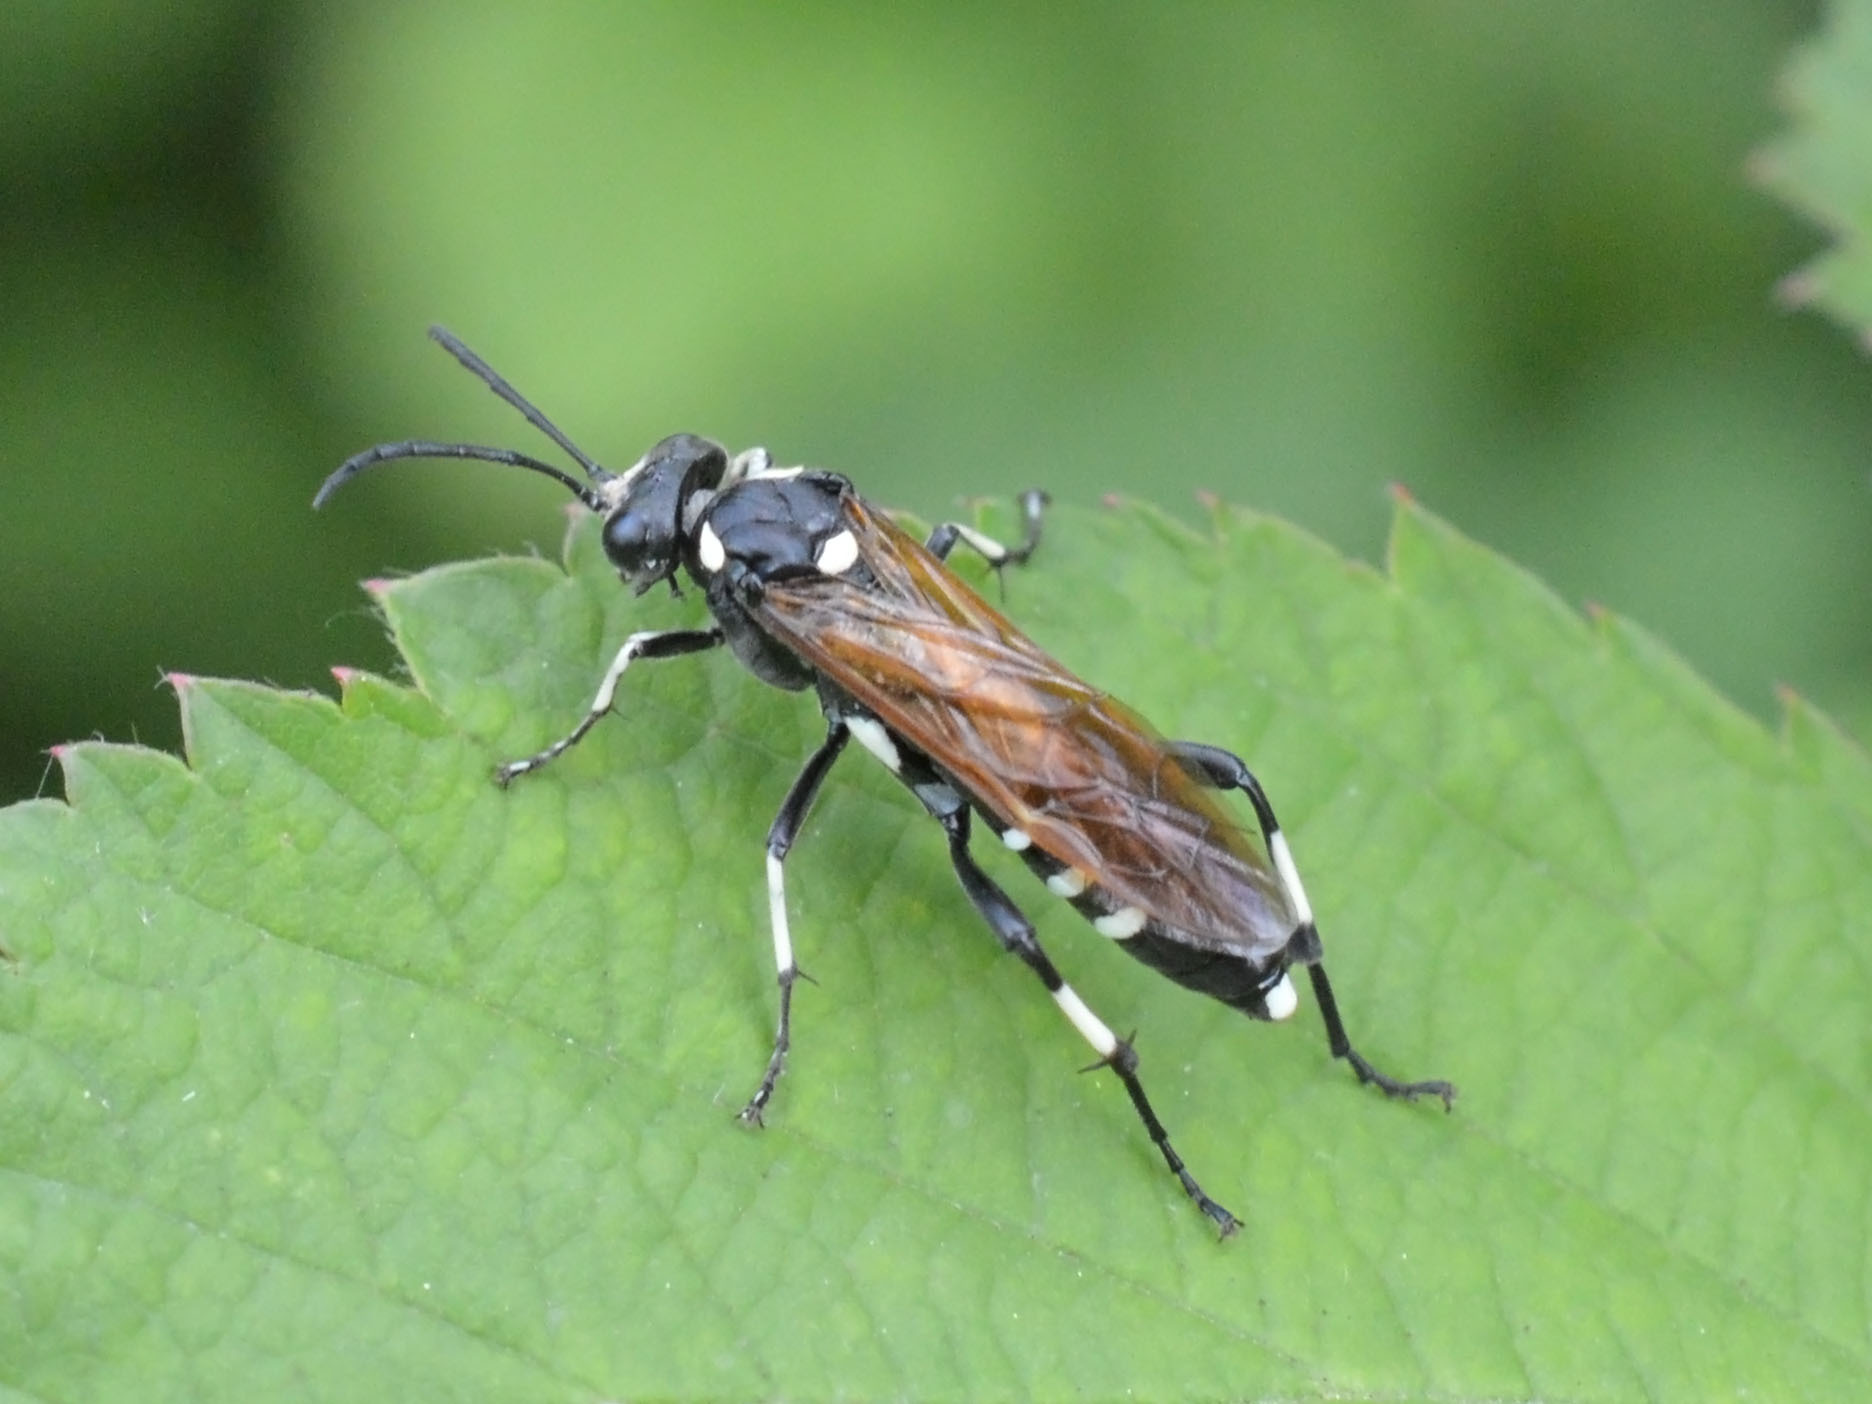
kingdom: Animalia
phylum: Arthropoda
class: Insecta
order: Hymenoptera
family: Tenthredinidae
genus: Macrophya
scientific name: Macrophya duodecimpunctata
